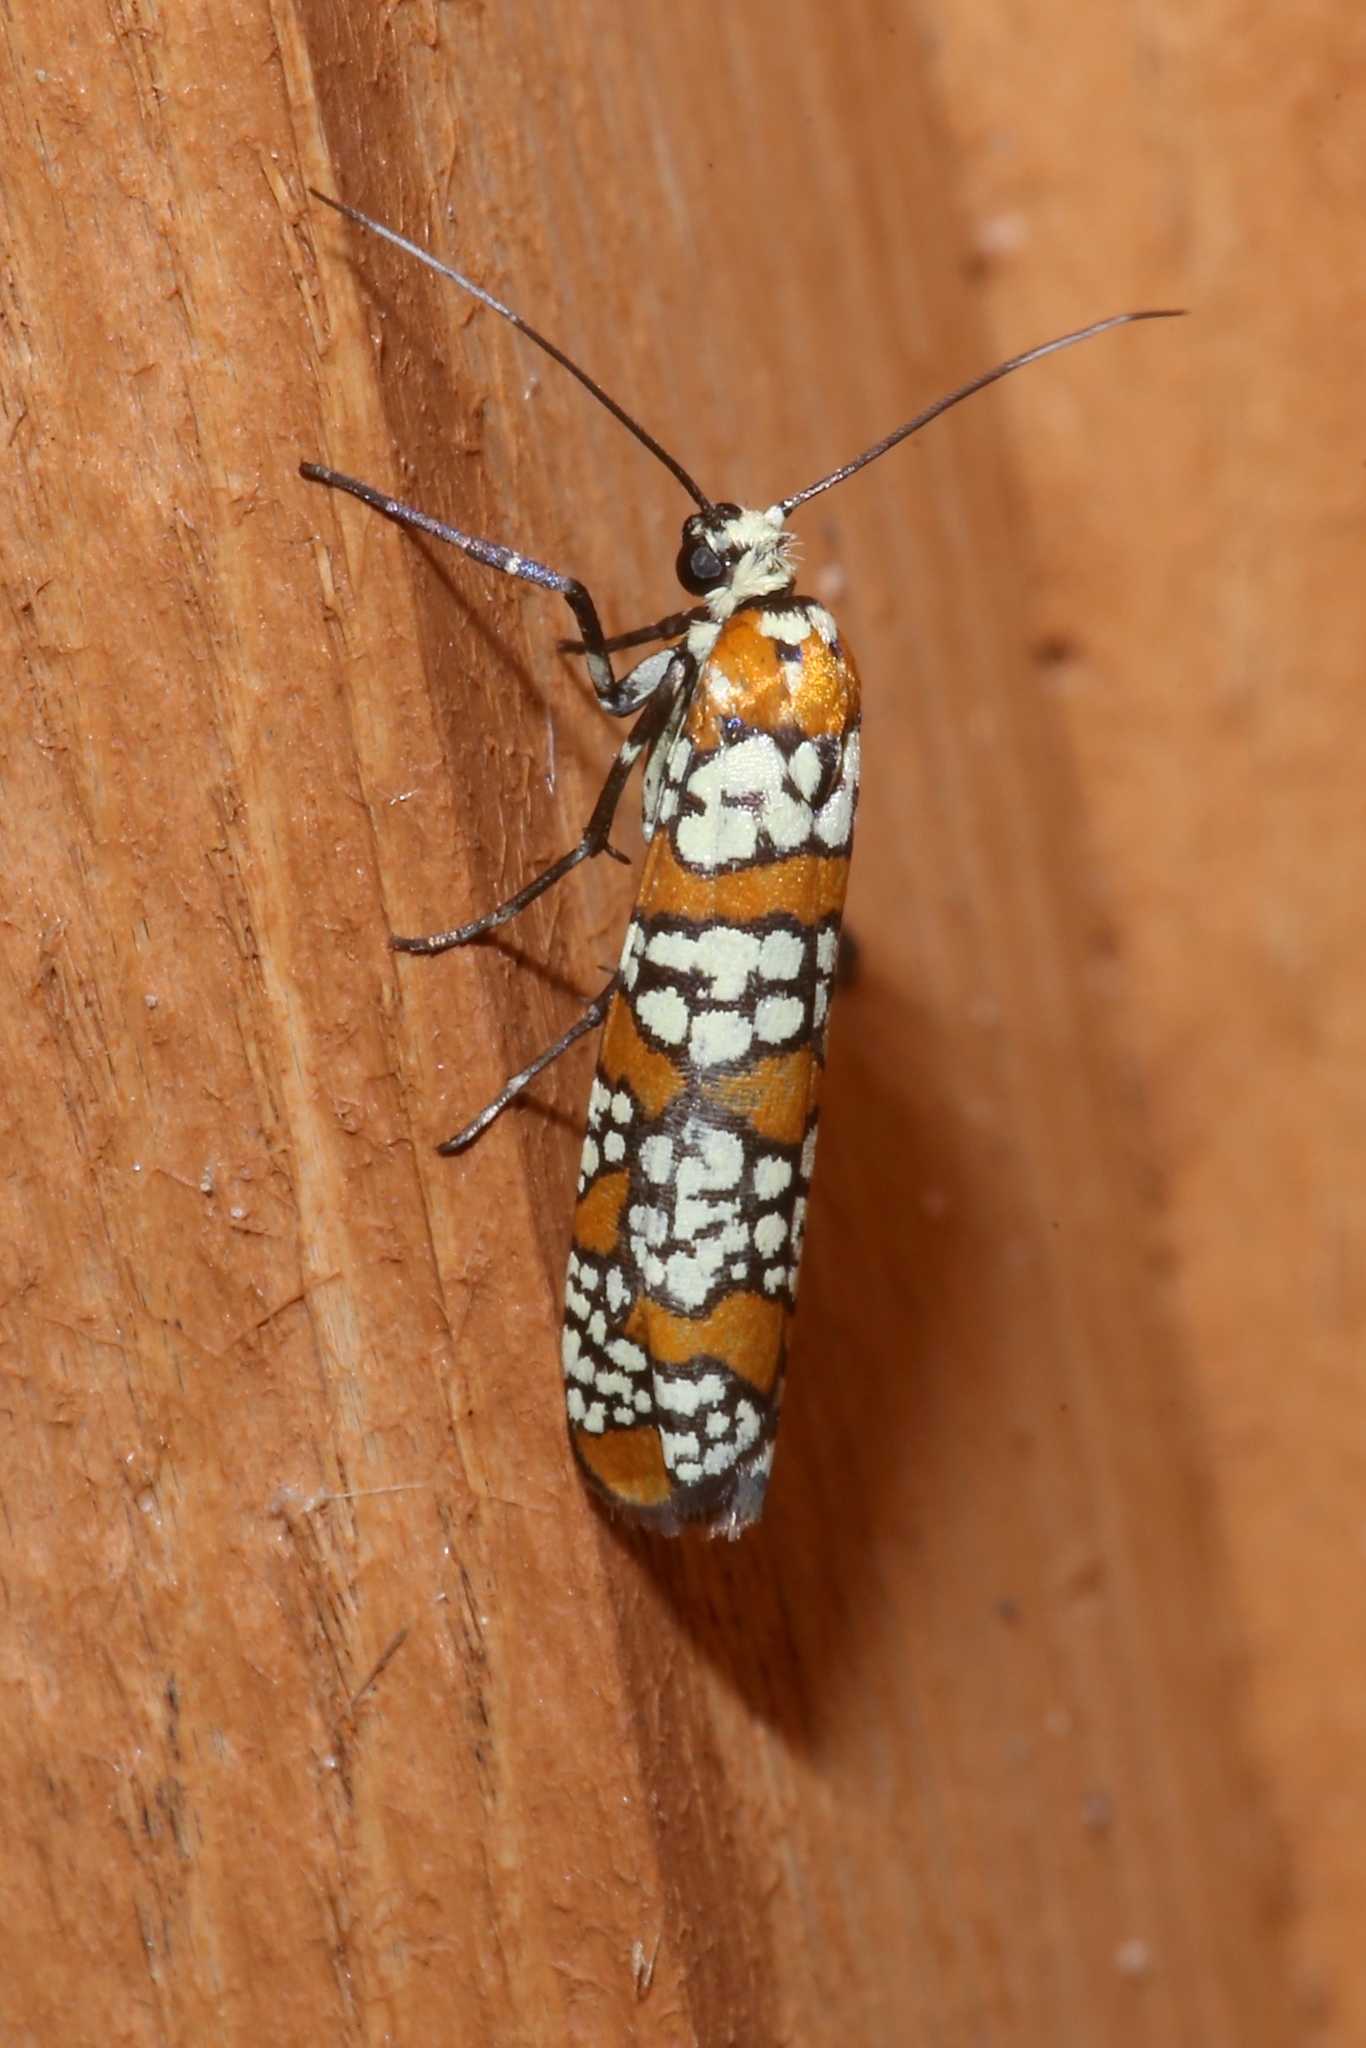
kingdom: Animalia
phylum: Arthropoda
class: Insecta
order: Lepidoptera
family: Attevidae
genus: Atteva
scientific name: Atteva punctella
